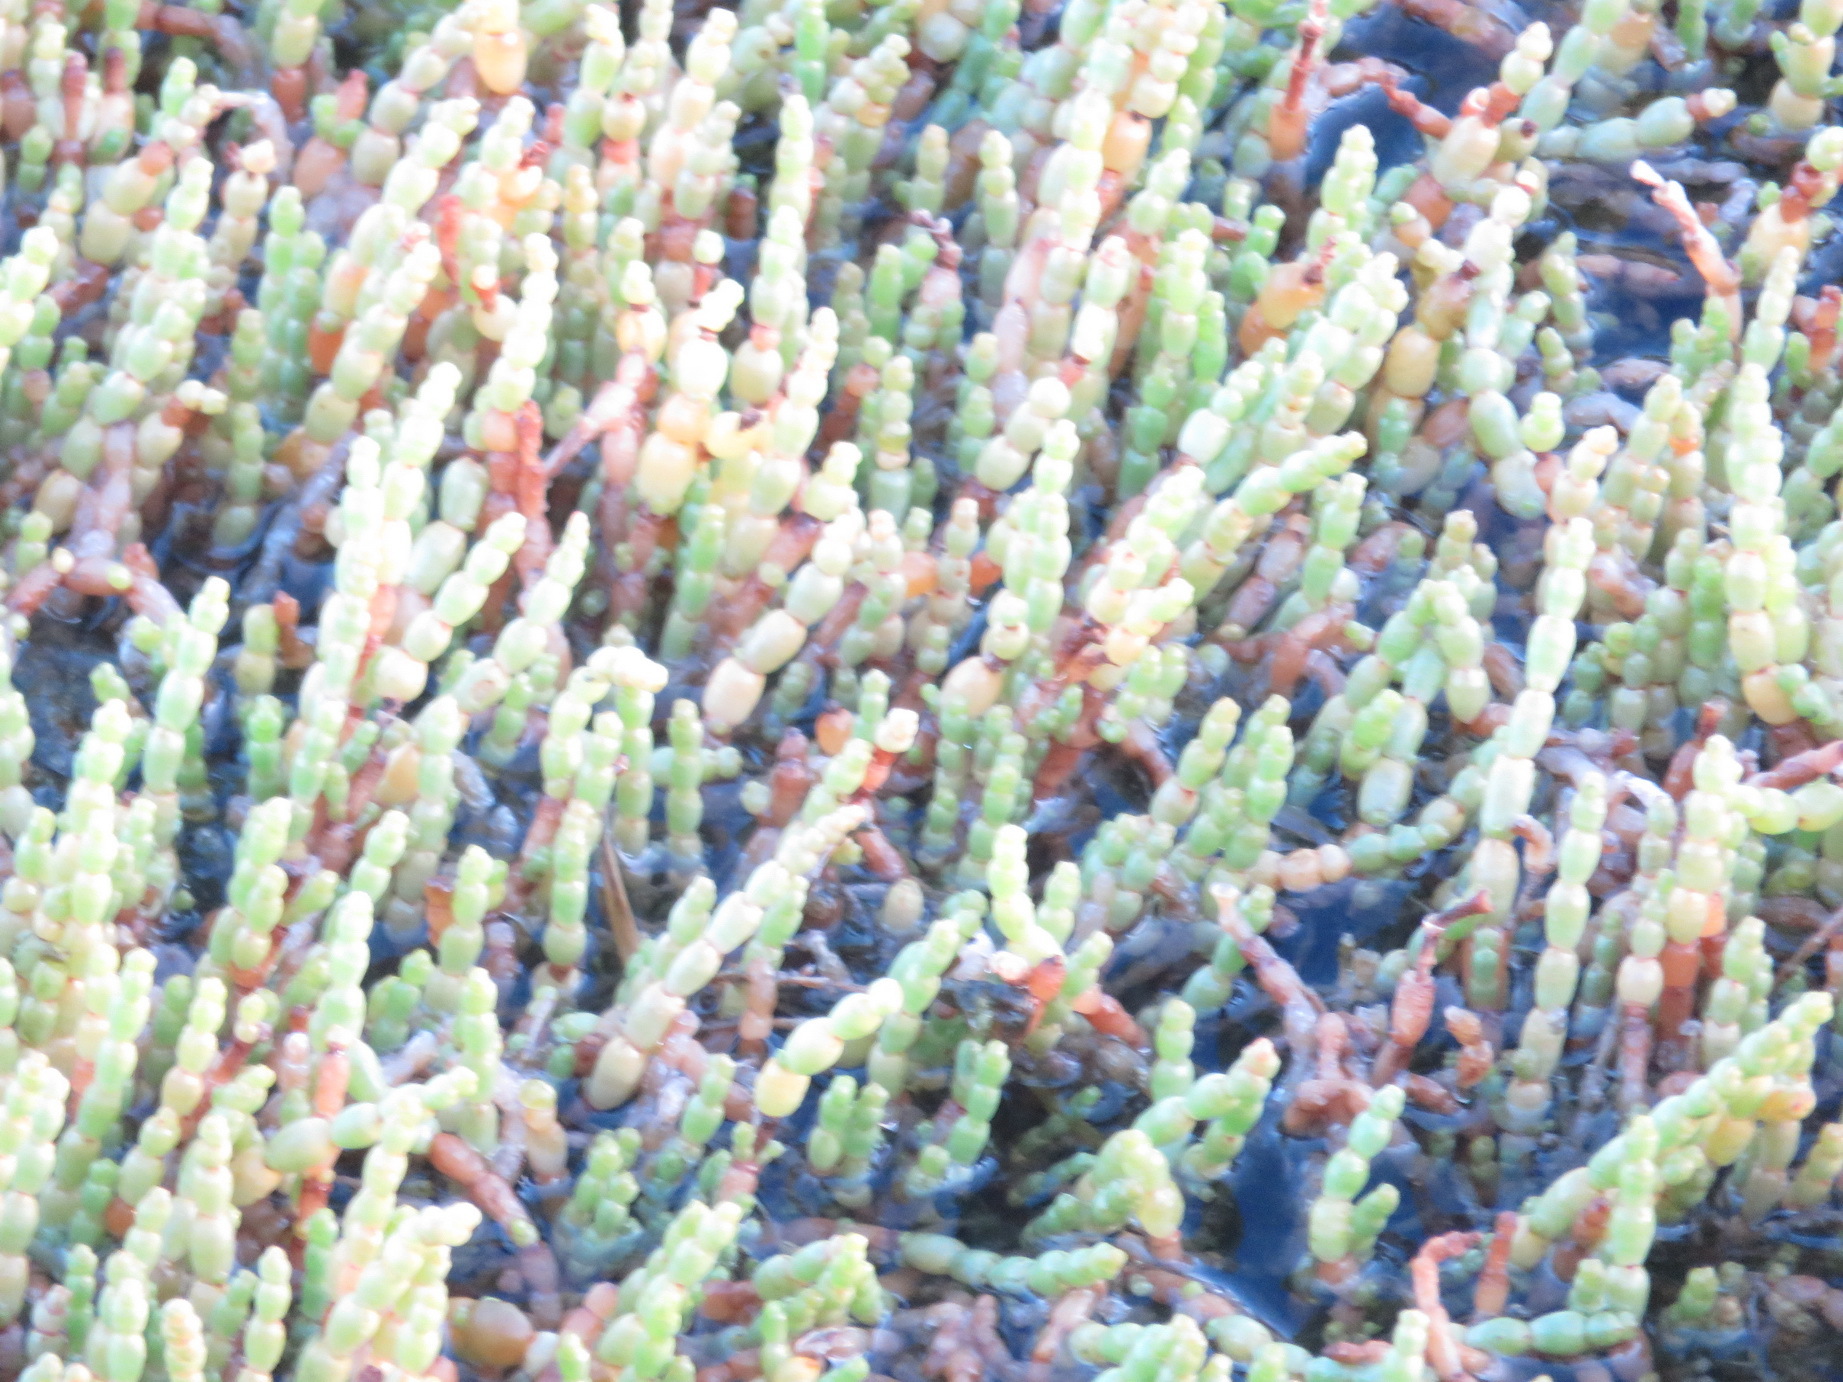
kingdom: Plantae
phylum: Tracheophyta
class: Magnoliopsida
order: Caryophyllales
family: Amaranthaceae
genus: Salicornia
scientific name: Salicornia tegetaria
